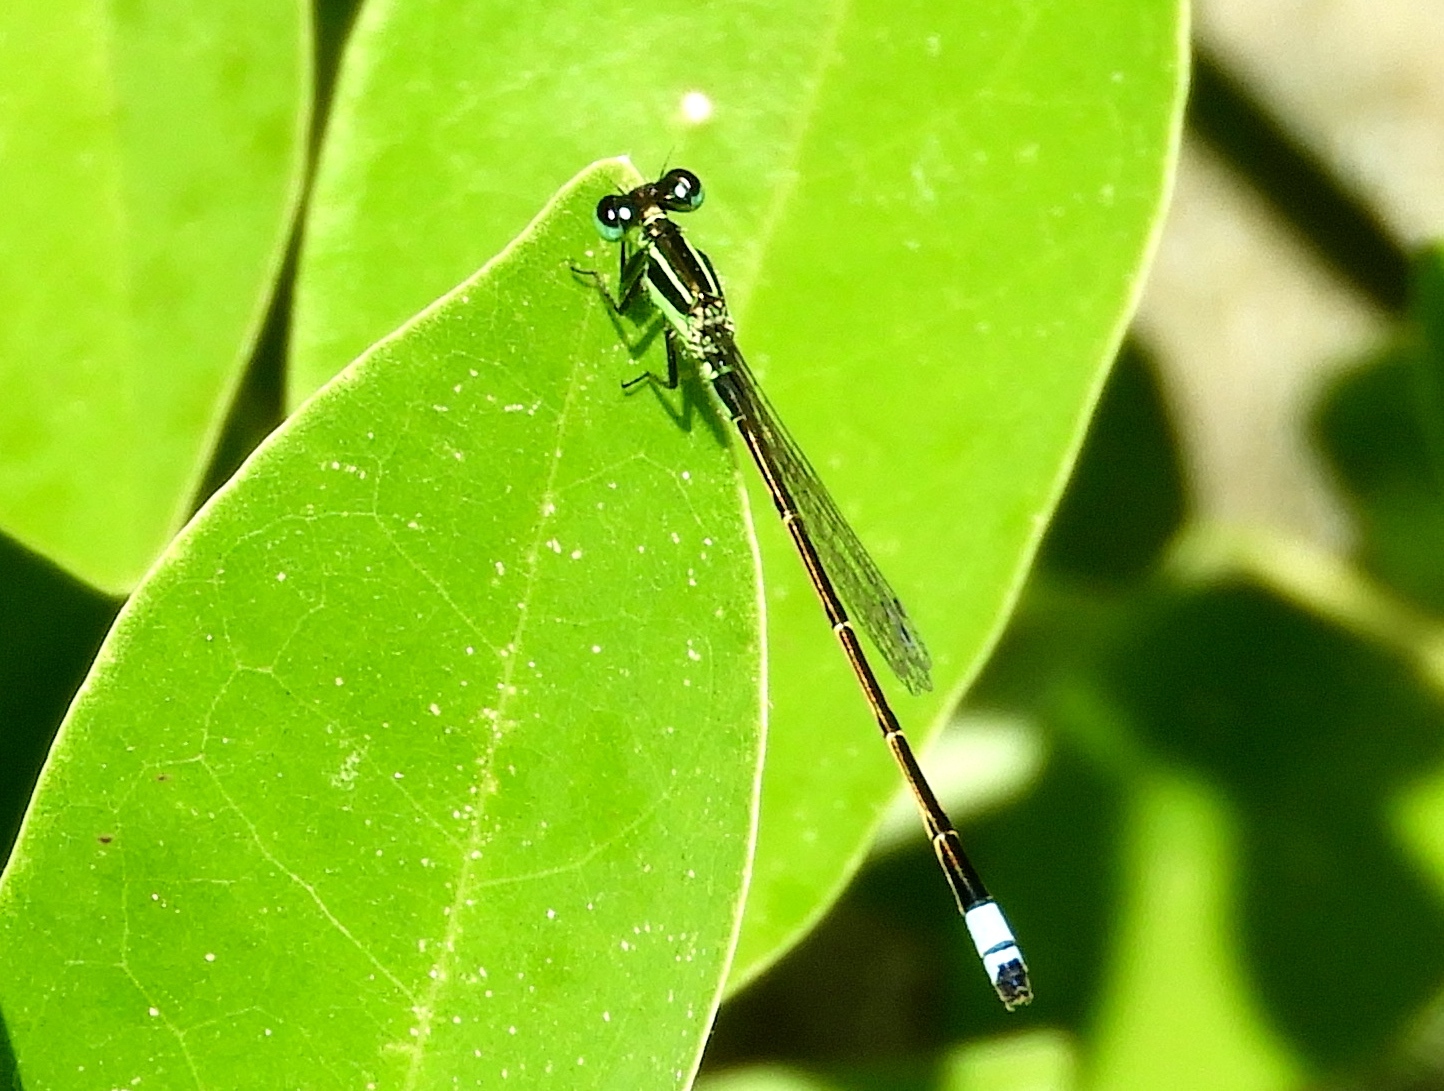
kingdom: Animalia
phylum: Arthropoda
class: Insecta
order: Odonata
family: Coenagrionidae
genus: Ischnura
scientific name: Ischnura ramburii
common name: Rambur's forktail
